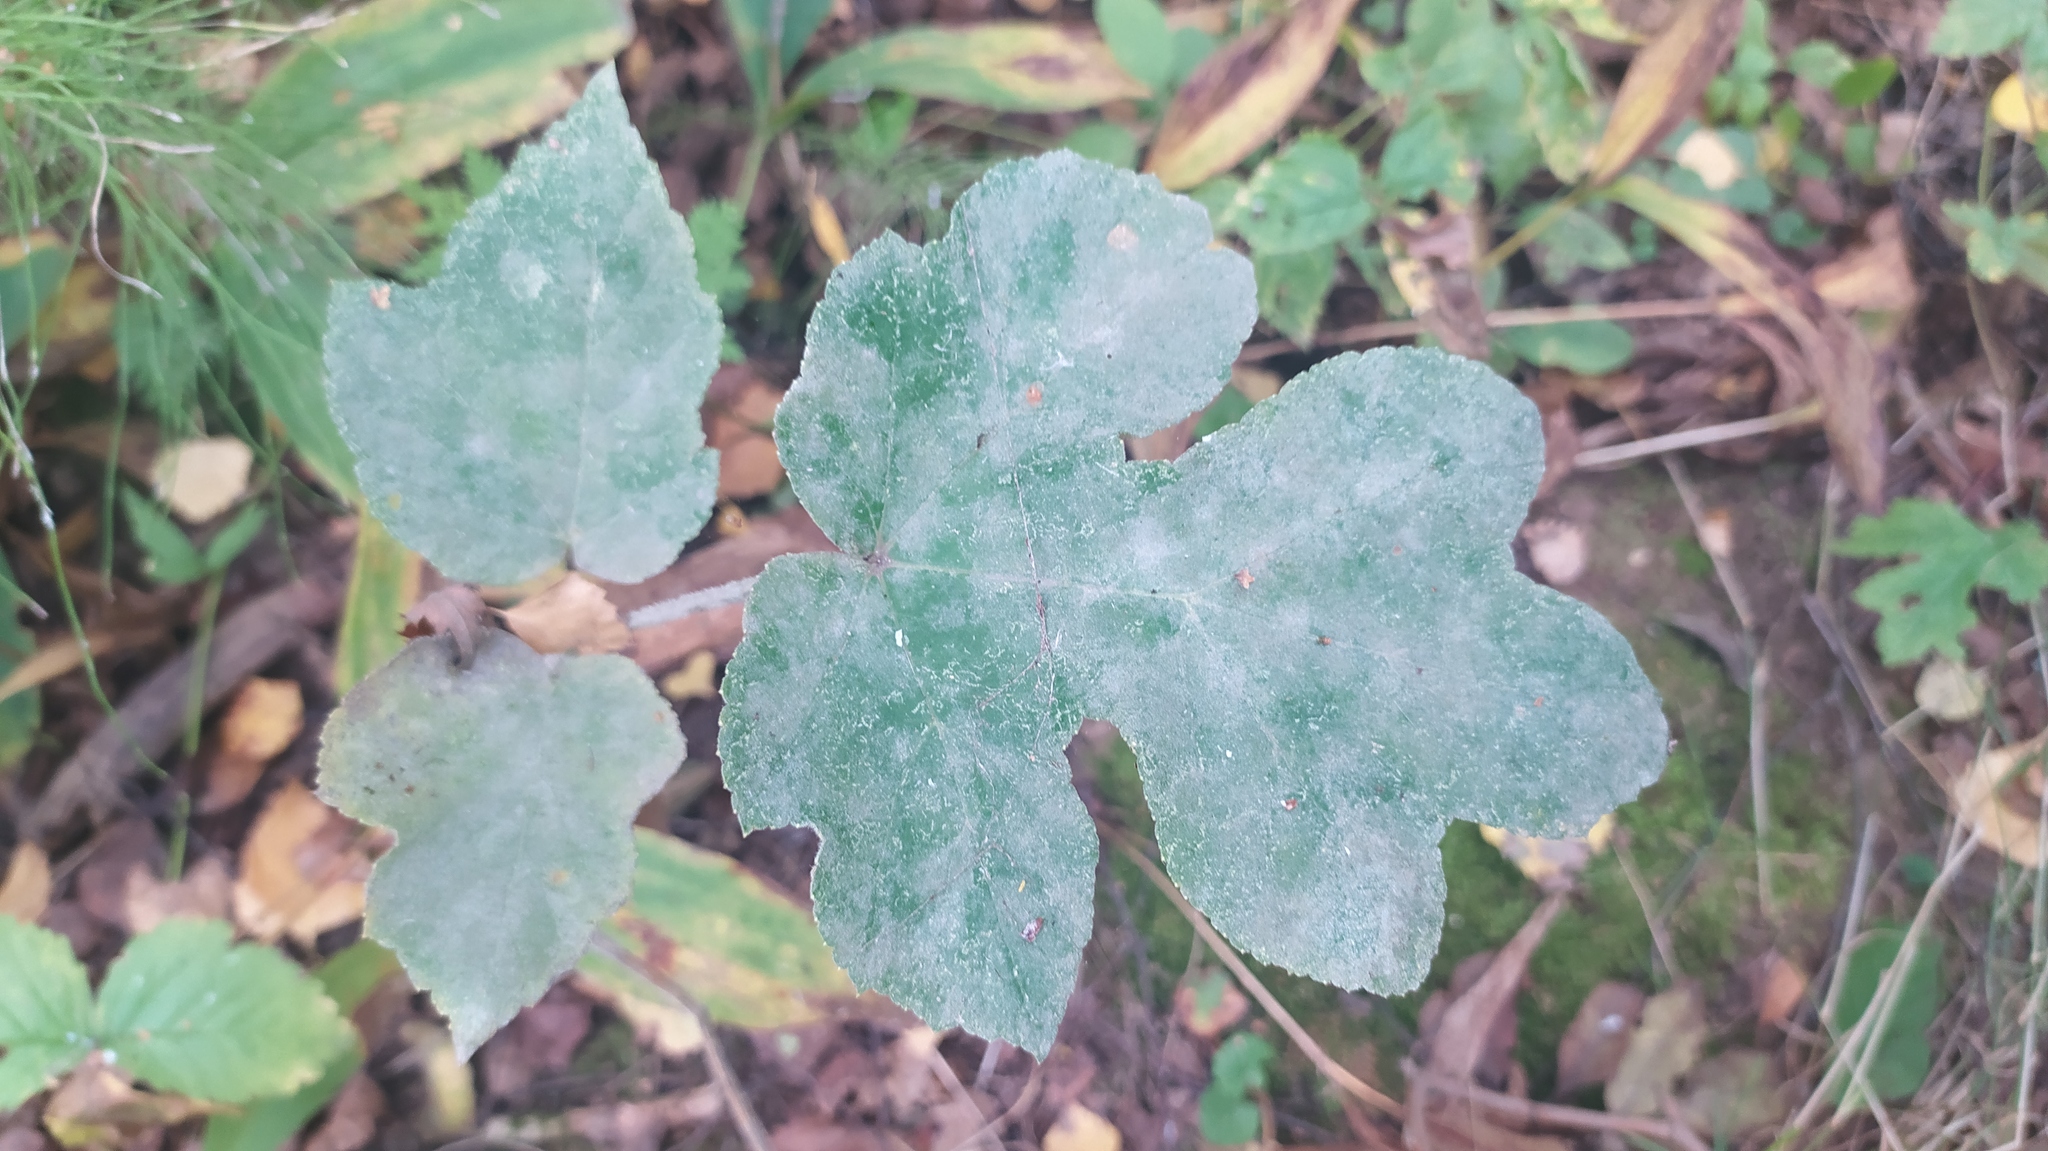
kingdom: Plantae
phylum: Tracheophyta
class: Magnoliopsida
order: Apiales
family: Apiaceae
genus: Heracleum
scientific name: Heracleum sphondylium
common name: Hogweed
